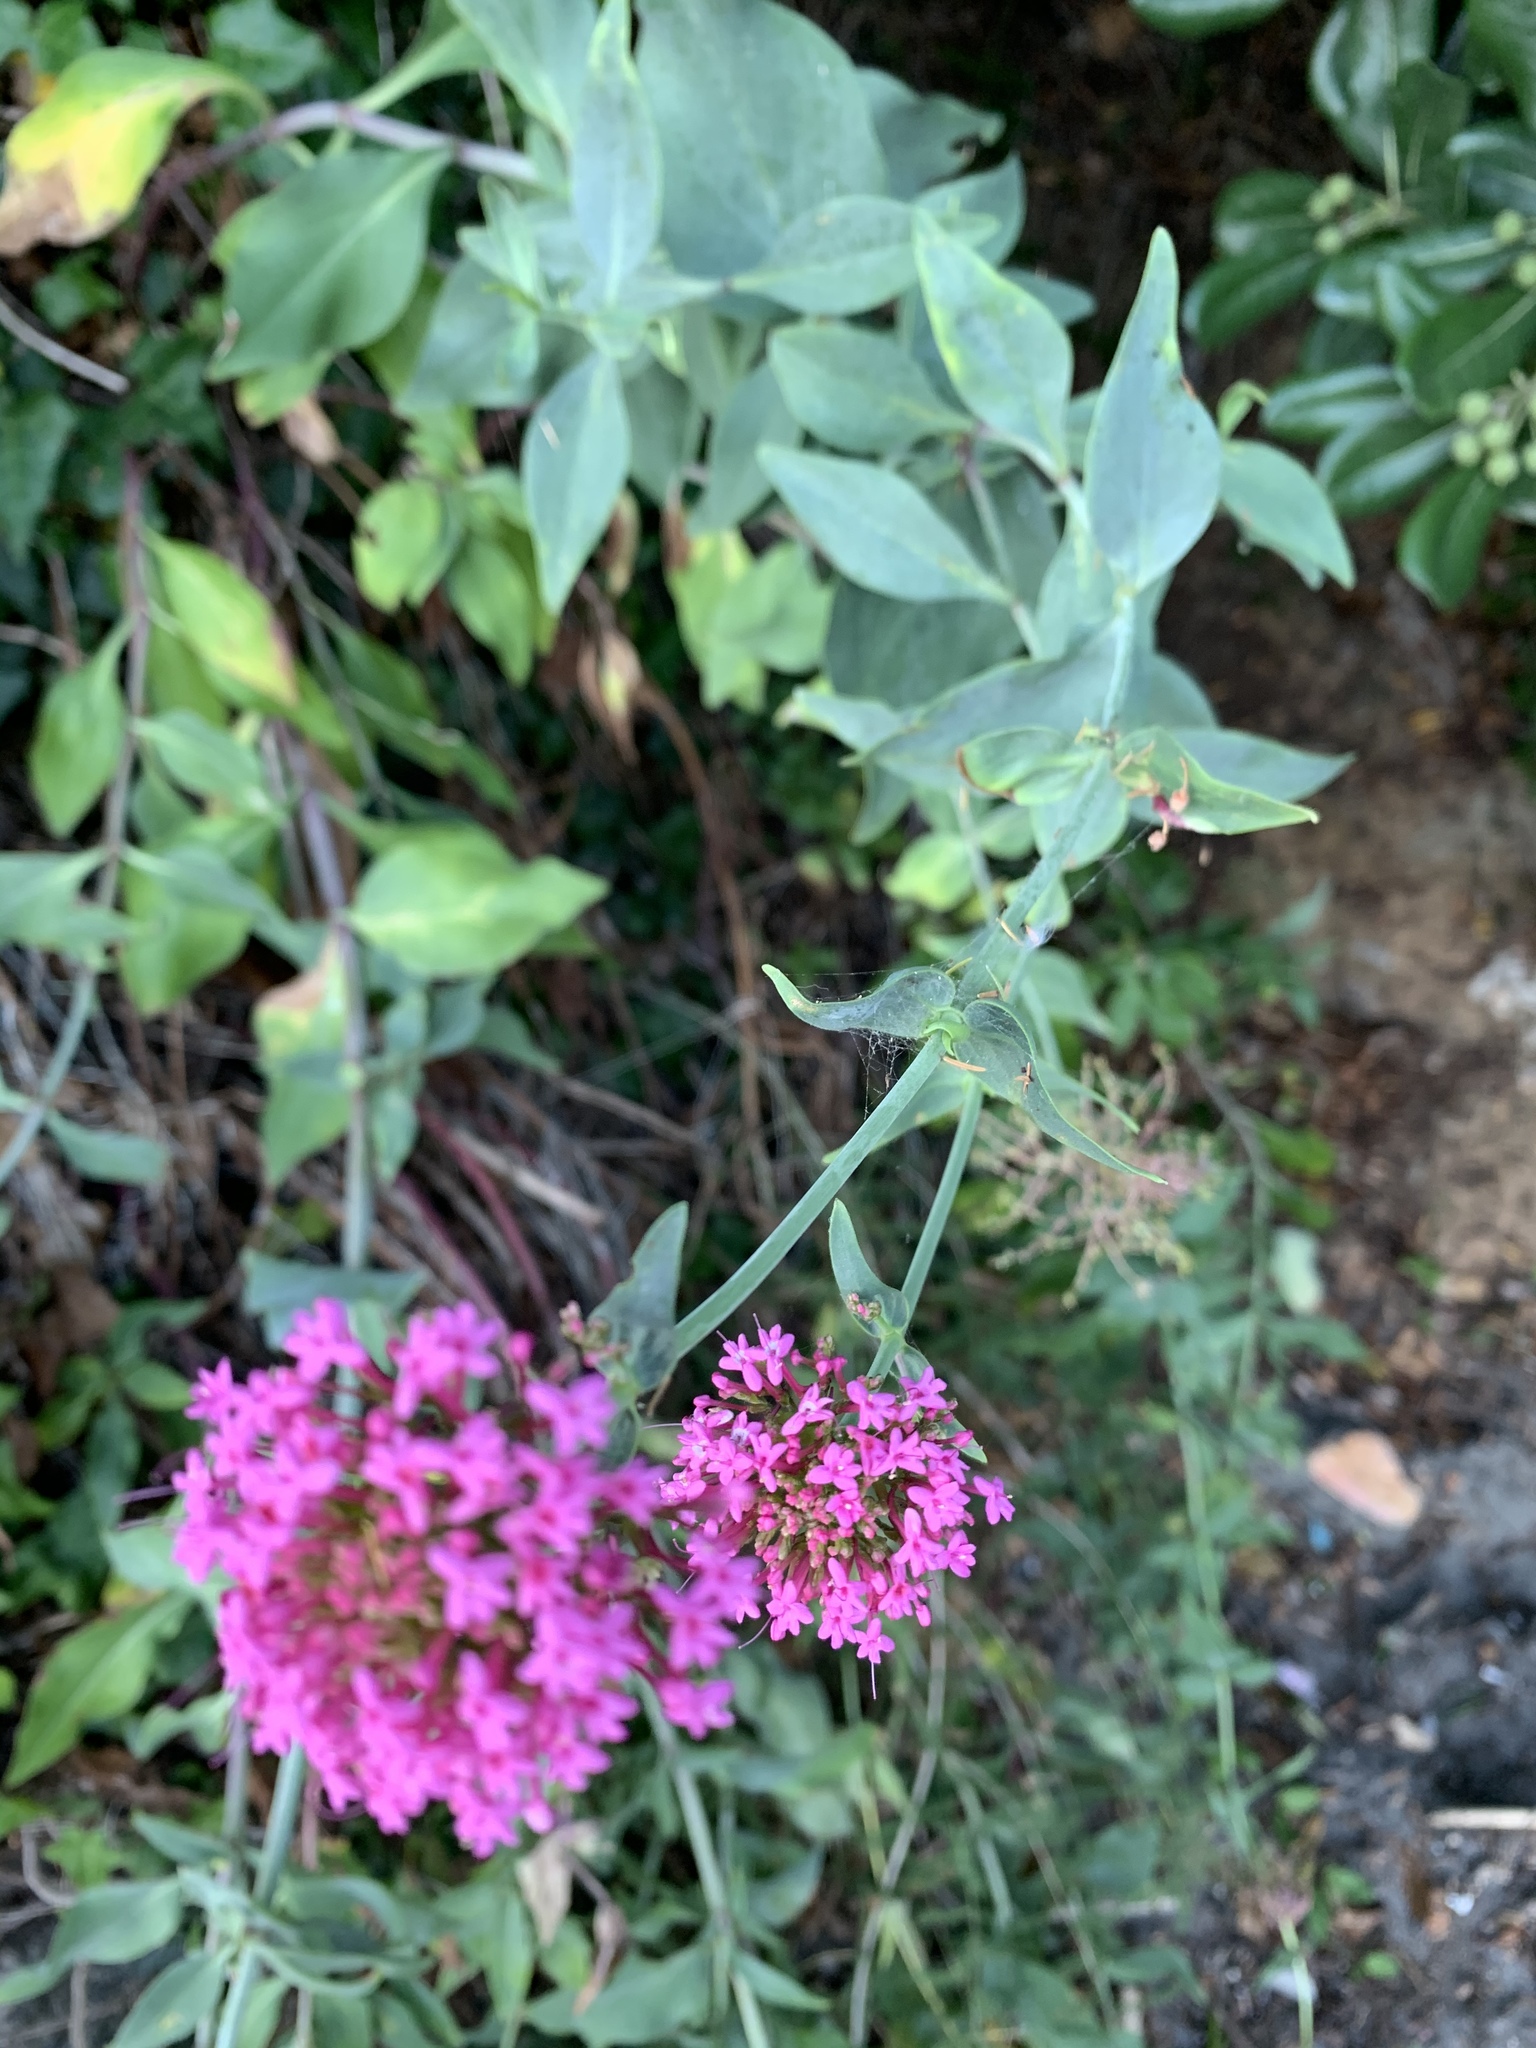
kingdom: Plantae
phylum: Tracheophyta
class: Magnoliopsida
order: Dipsacales
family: Caprifoliaceae
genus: Centranthus
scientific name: Centranthus ruber
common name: Red valerian
